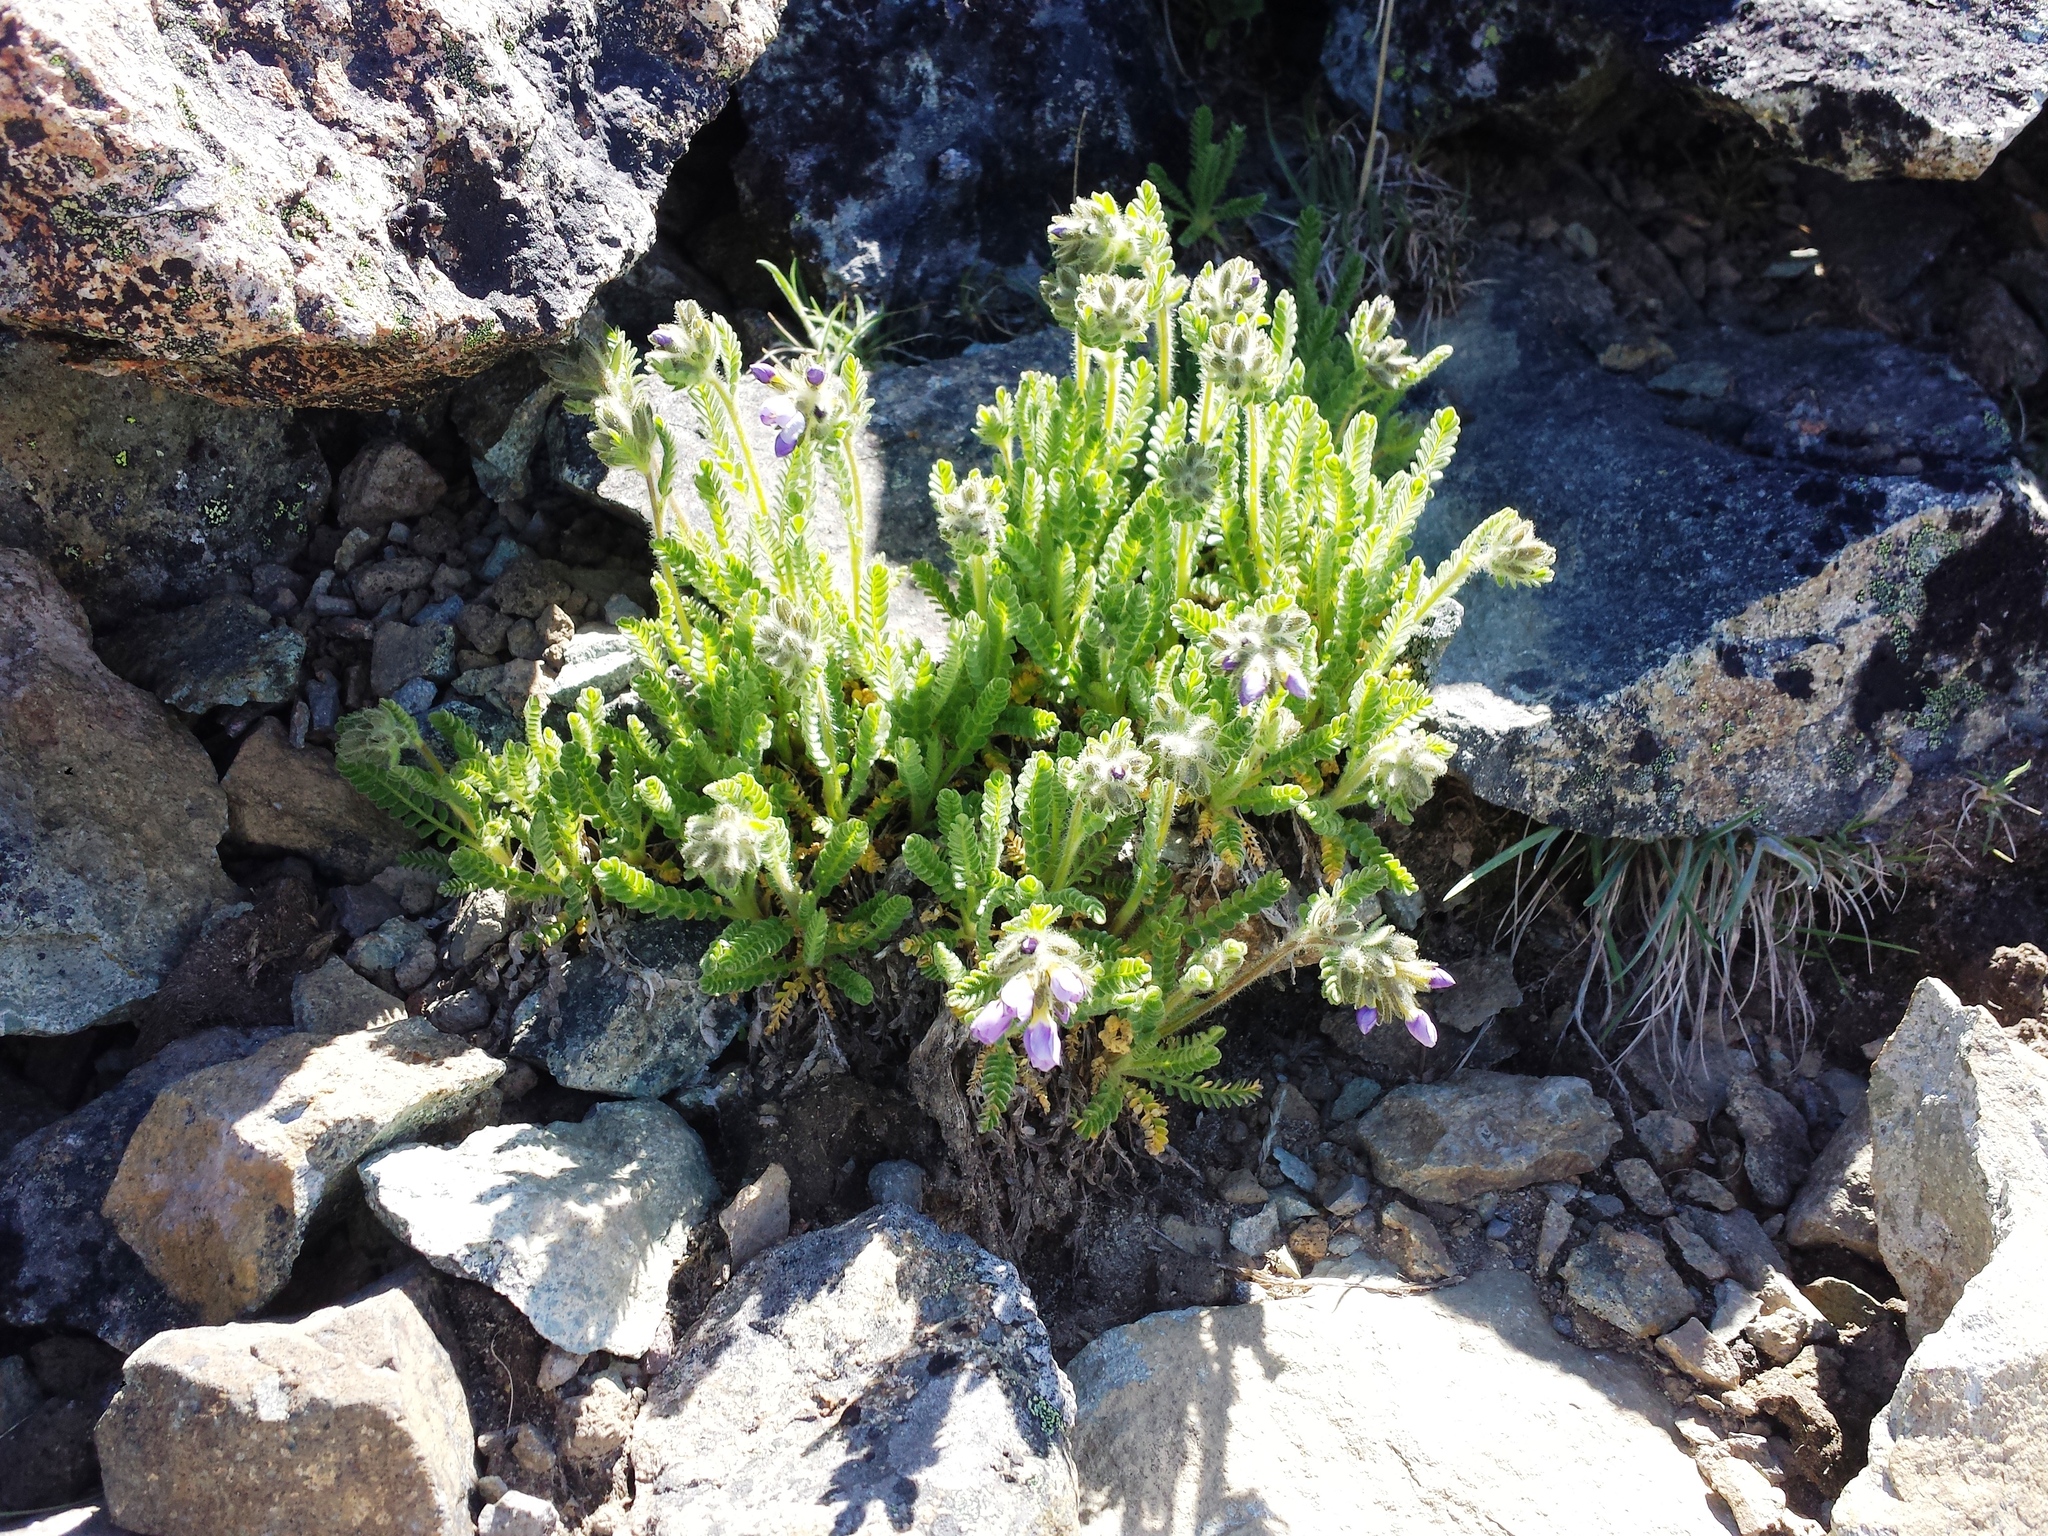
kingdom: Plantae
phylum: Tracheophyta
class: Magnoliopsida
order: Ericales
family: Polemoniaceae
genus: Polemonium
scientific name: Polemonium elegans
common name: Elegant jacob's-ladder
